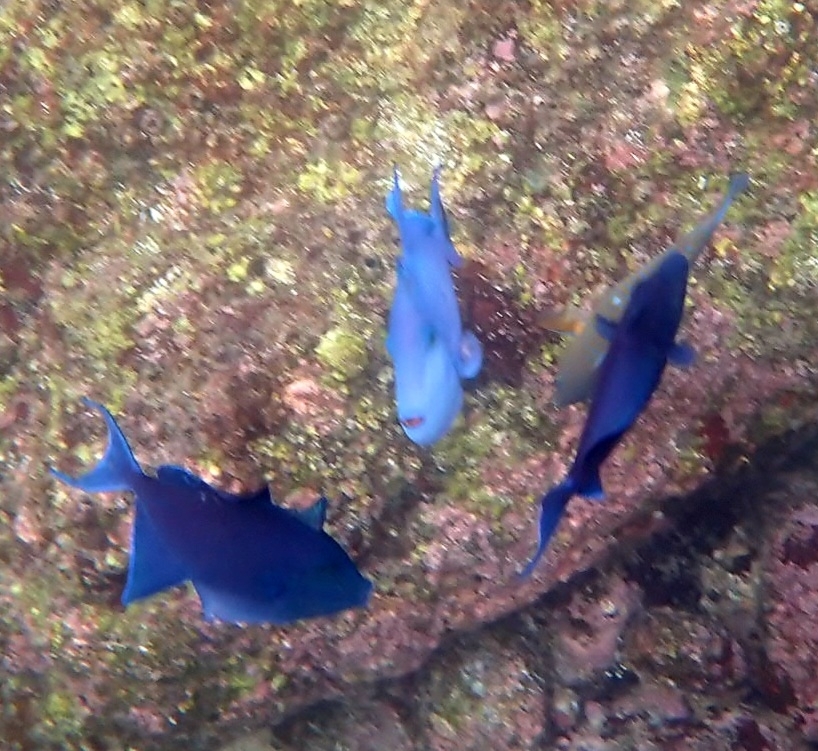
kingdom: Animalia
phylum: Chordata
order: Tetraodontiformes
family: Balistidae
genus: Odonus
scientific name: Odonus niger
